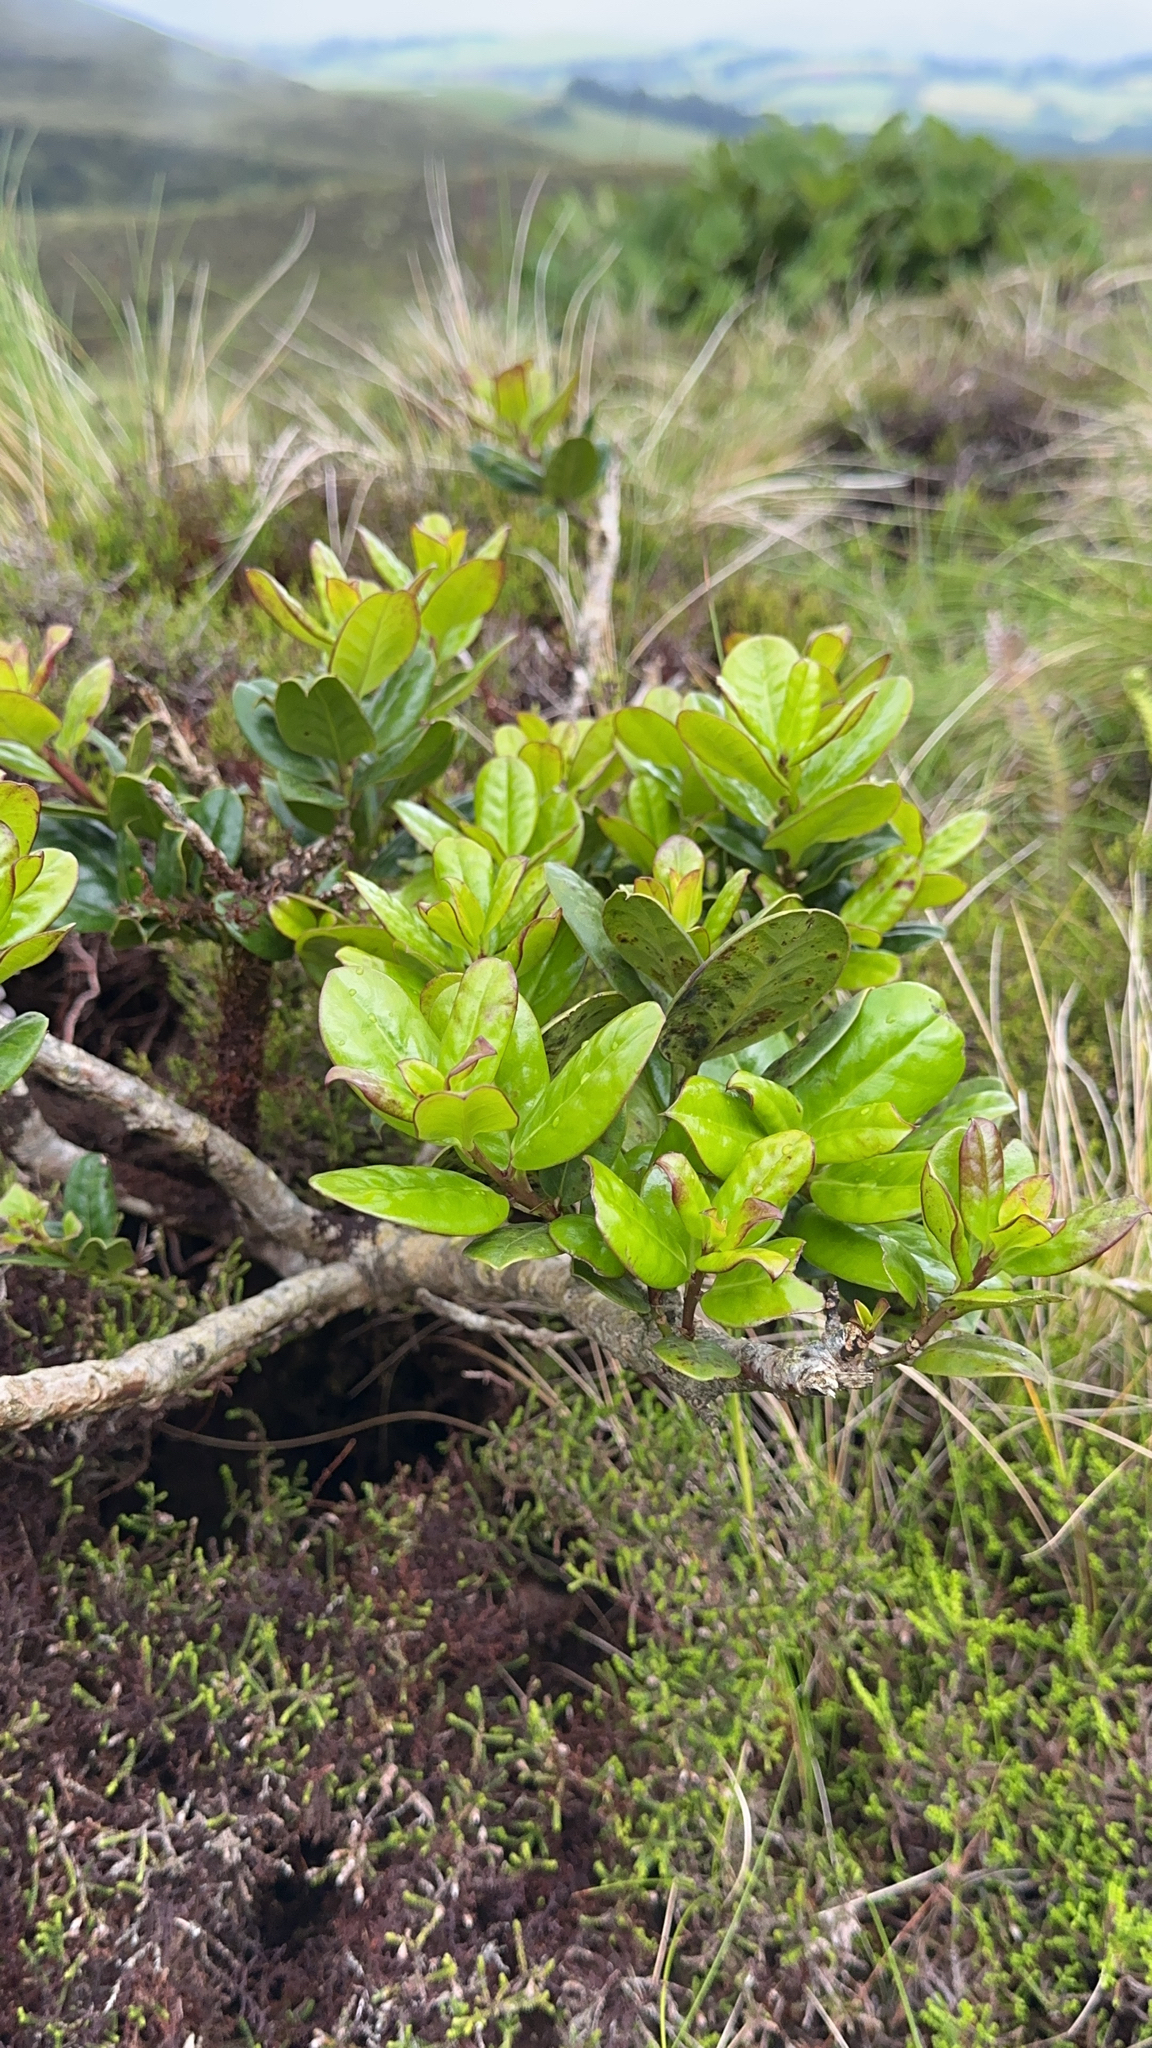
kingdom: Plantae
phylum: Tracheophyta
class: Magnoliopsida
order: Aquifoliales
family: Aquifoliaceae
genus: Ilex
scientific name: Ilex perado
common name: Madeira holly
